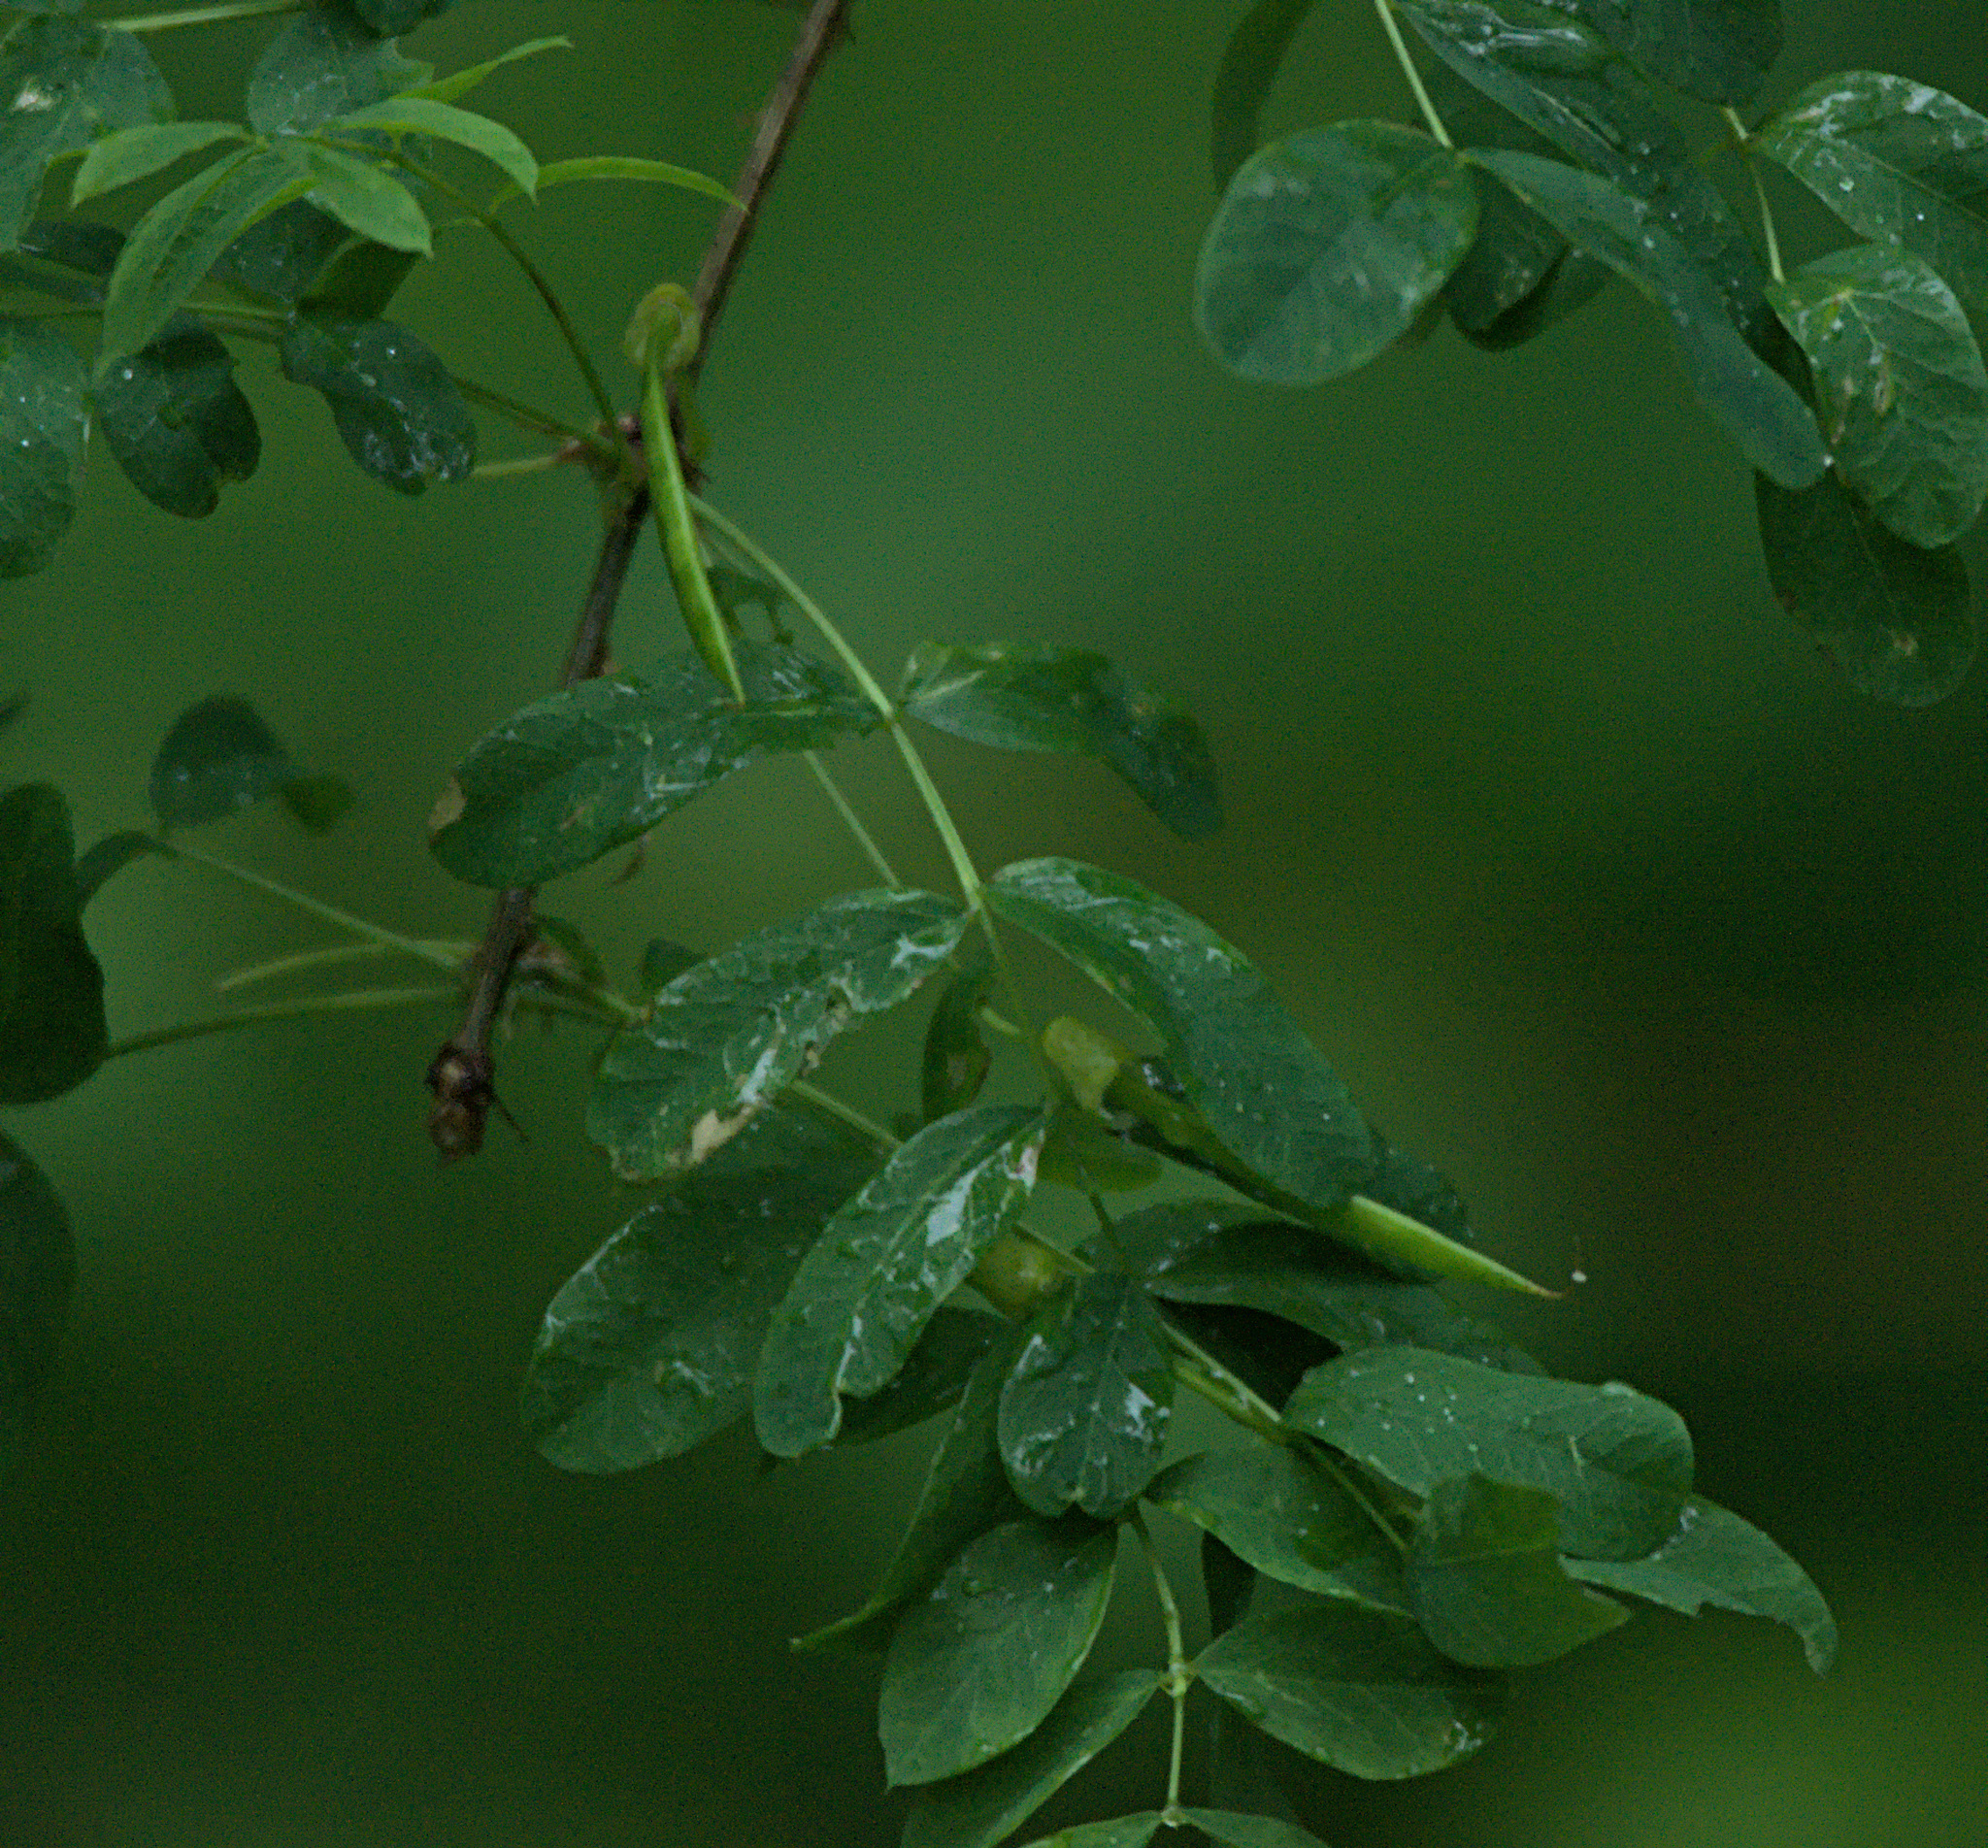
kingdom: Plantae
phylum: Tracheophyta
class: Magnoliopsida
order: Fabales
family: Fabaceae
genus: Caragana
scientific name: Caragana arborescens
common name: Siberian peashrub
